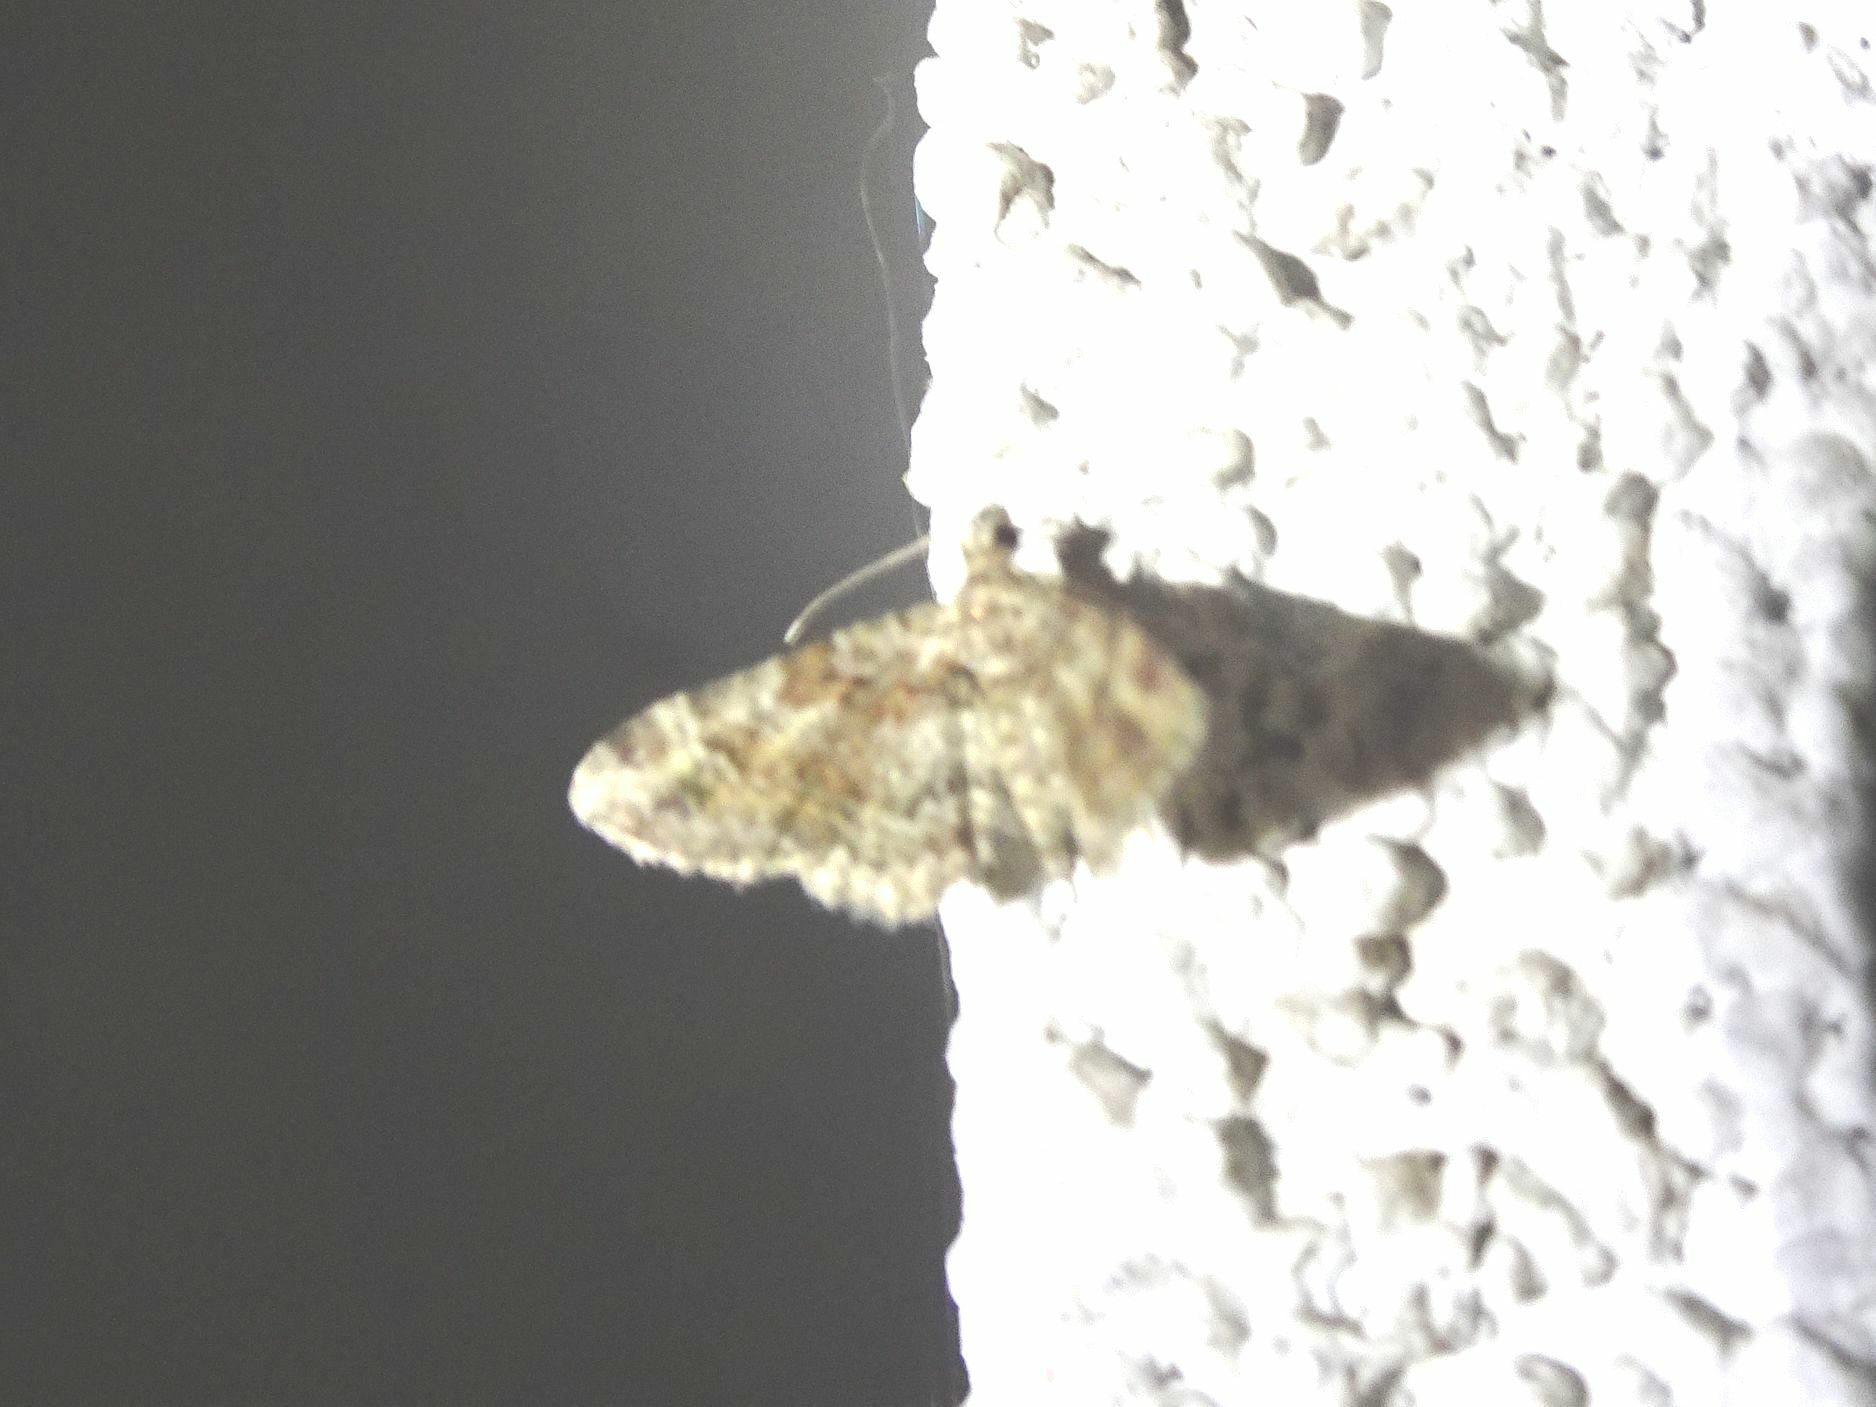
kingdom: Animalia
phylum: Arthropoda
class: Insecta
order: Lepidoptera
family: Geometridae
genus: Gymnoscelis
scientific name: Gymnoscelis rufifasciata
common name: Double-striped pug
